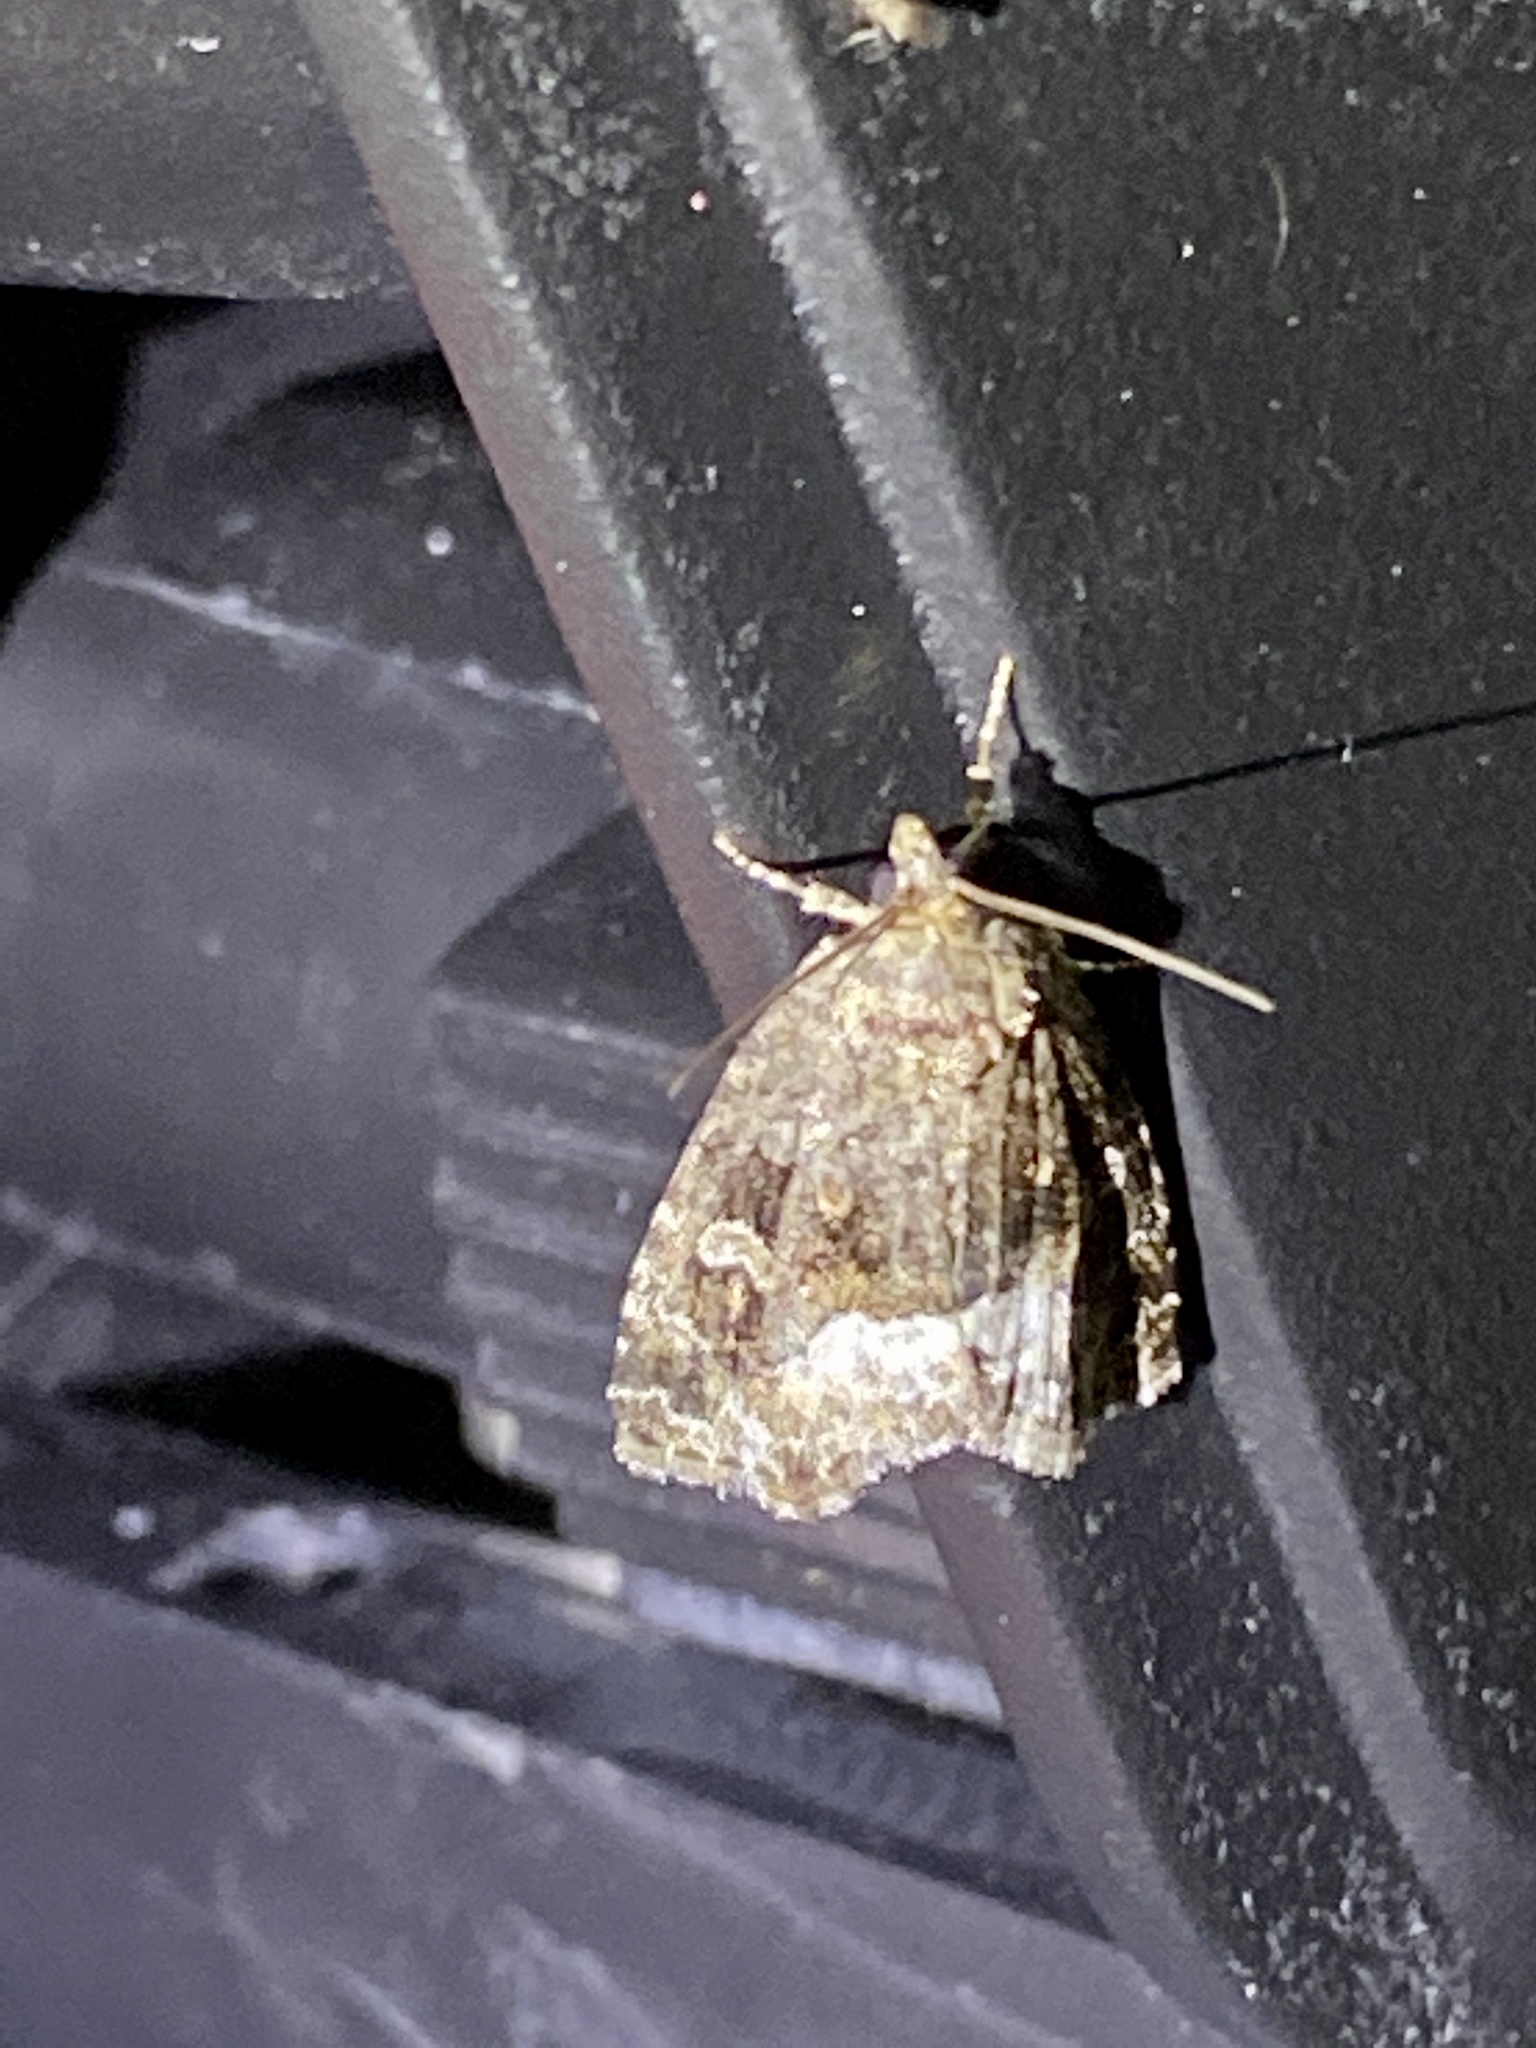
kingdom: Animalia
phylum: Arthropoda
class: Insecta
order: Lepidoptera
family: Noctuidae
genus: Deltote
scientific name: Deltote pygarga
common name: Marbled white spot
